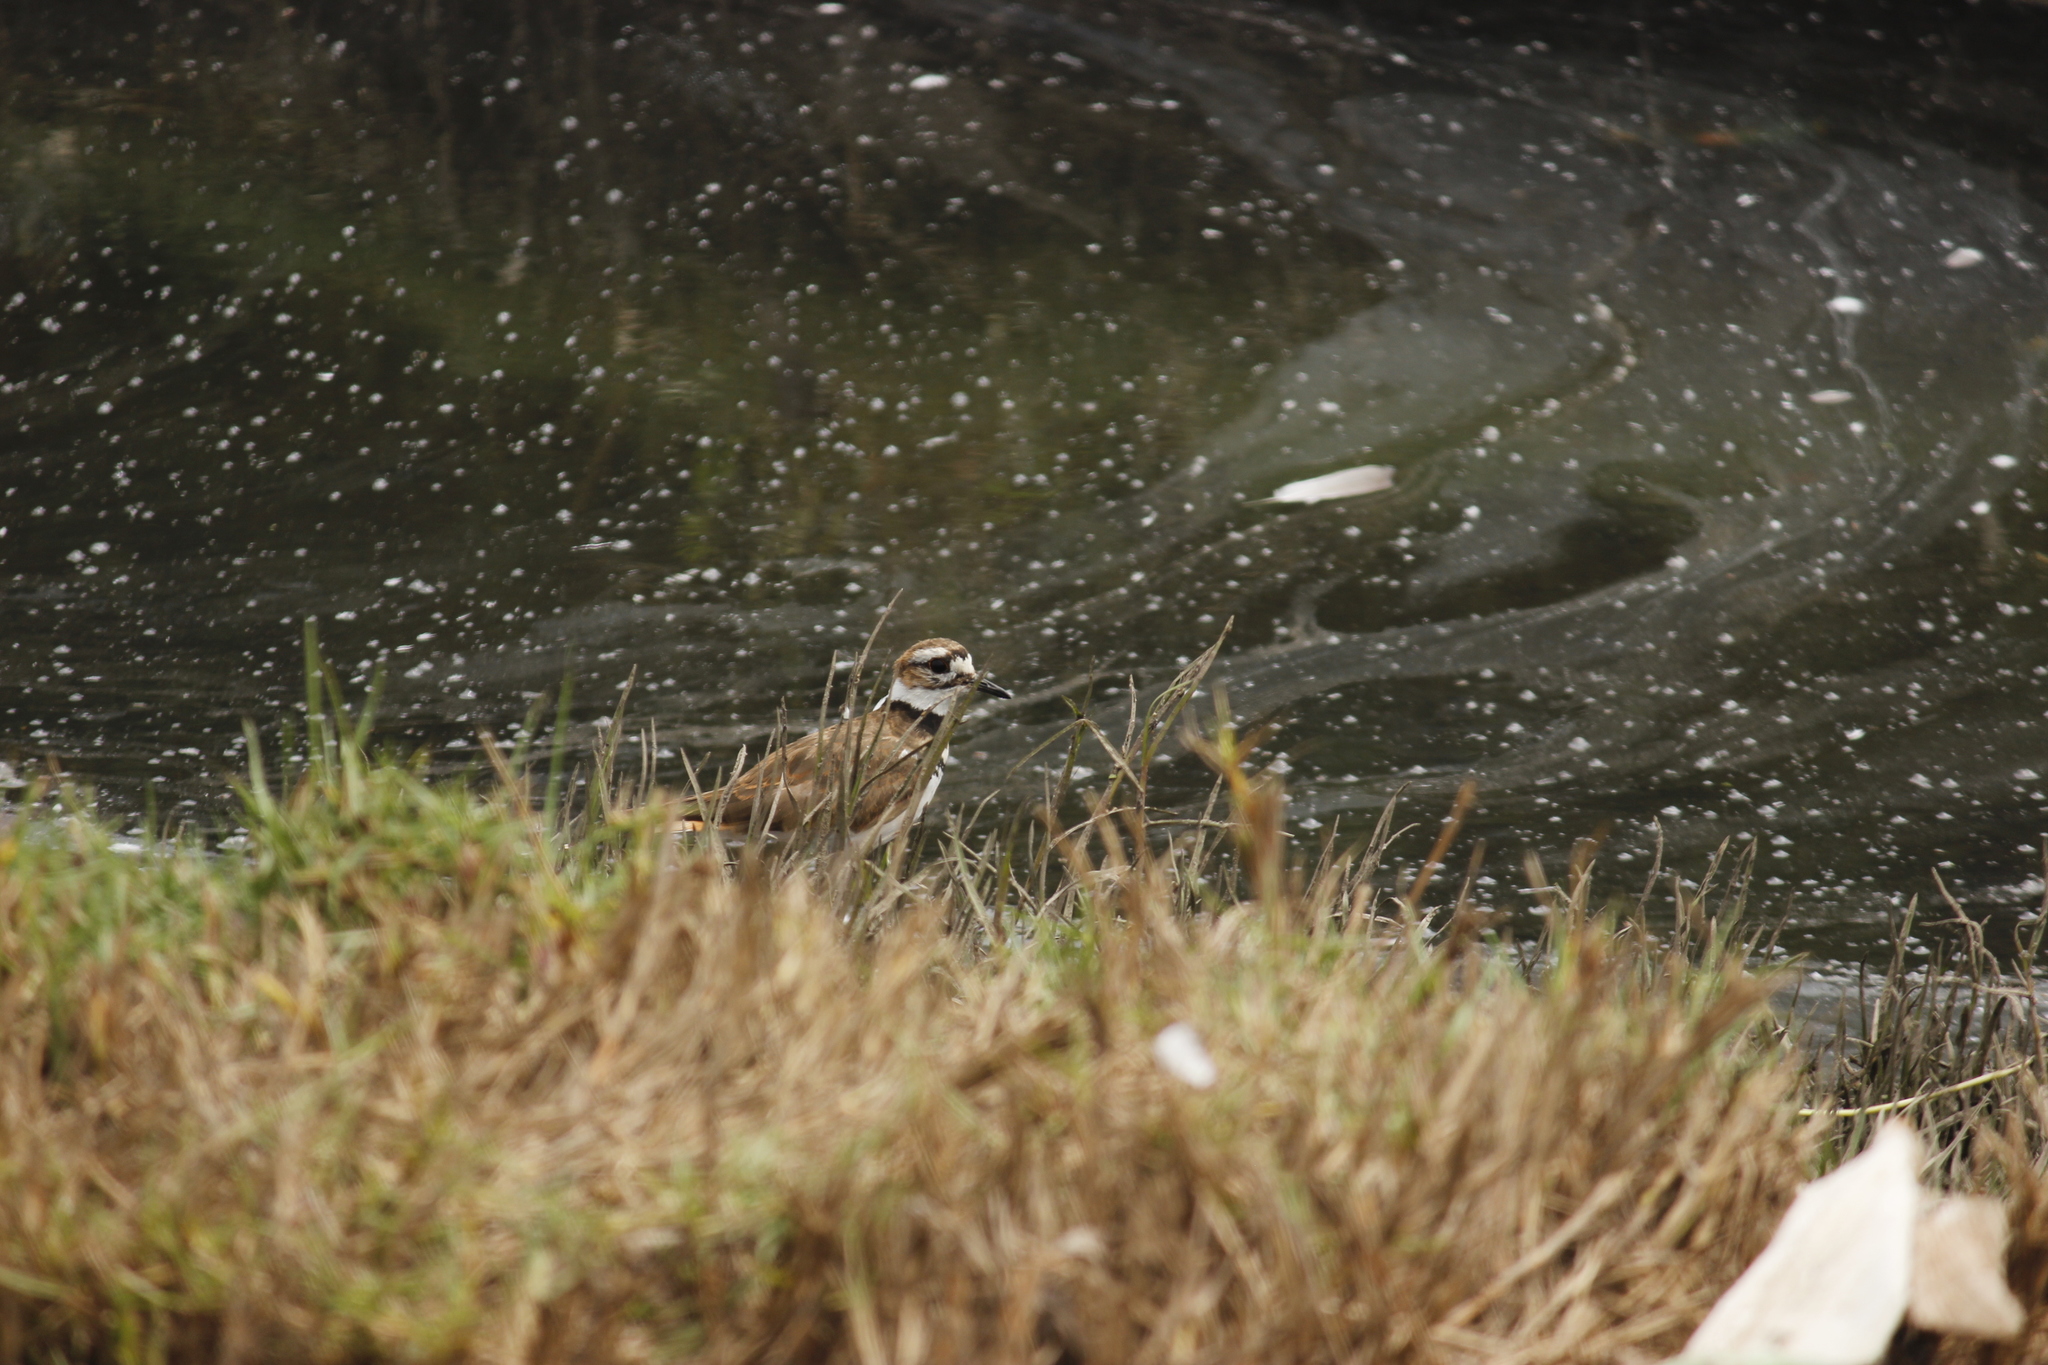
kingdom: Animalia
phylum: Chordata
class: Aves
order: Charadriiformes
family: Charadriidae
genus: Charadrius
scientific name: Charadrius vociferus
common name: Killdeer
